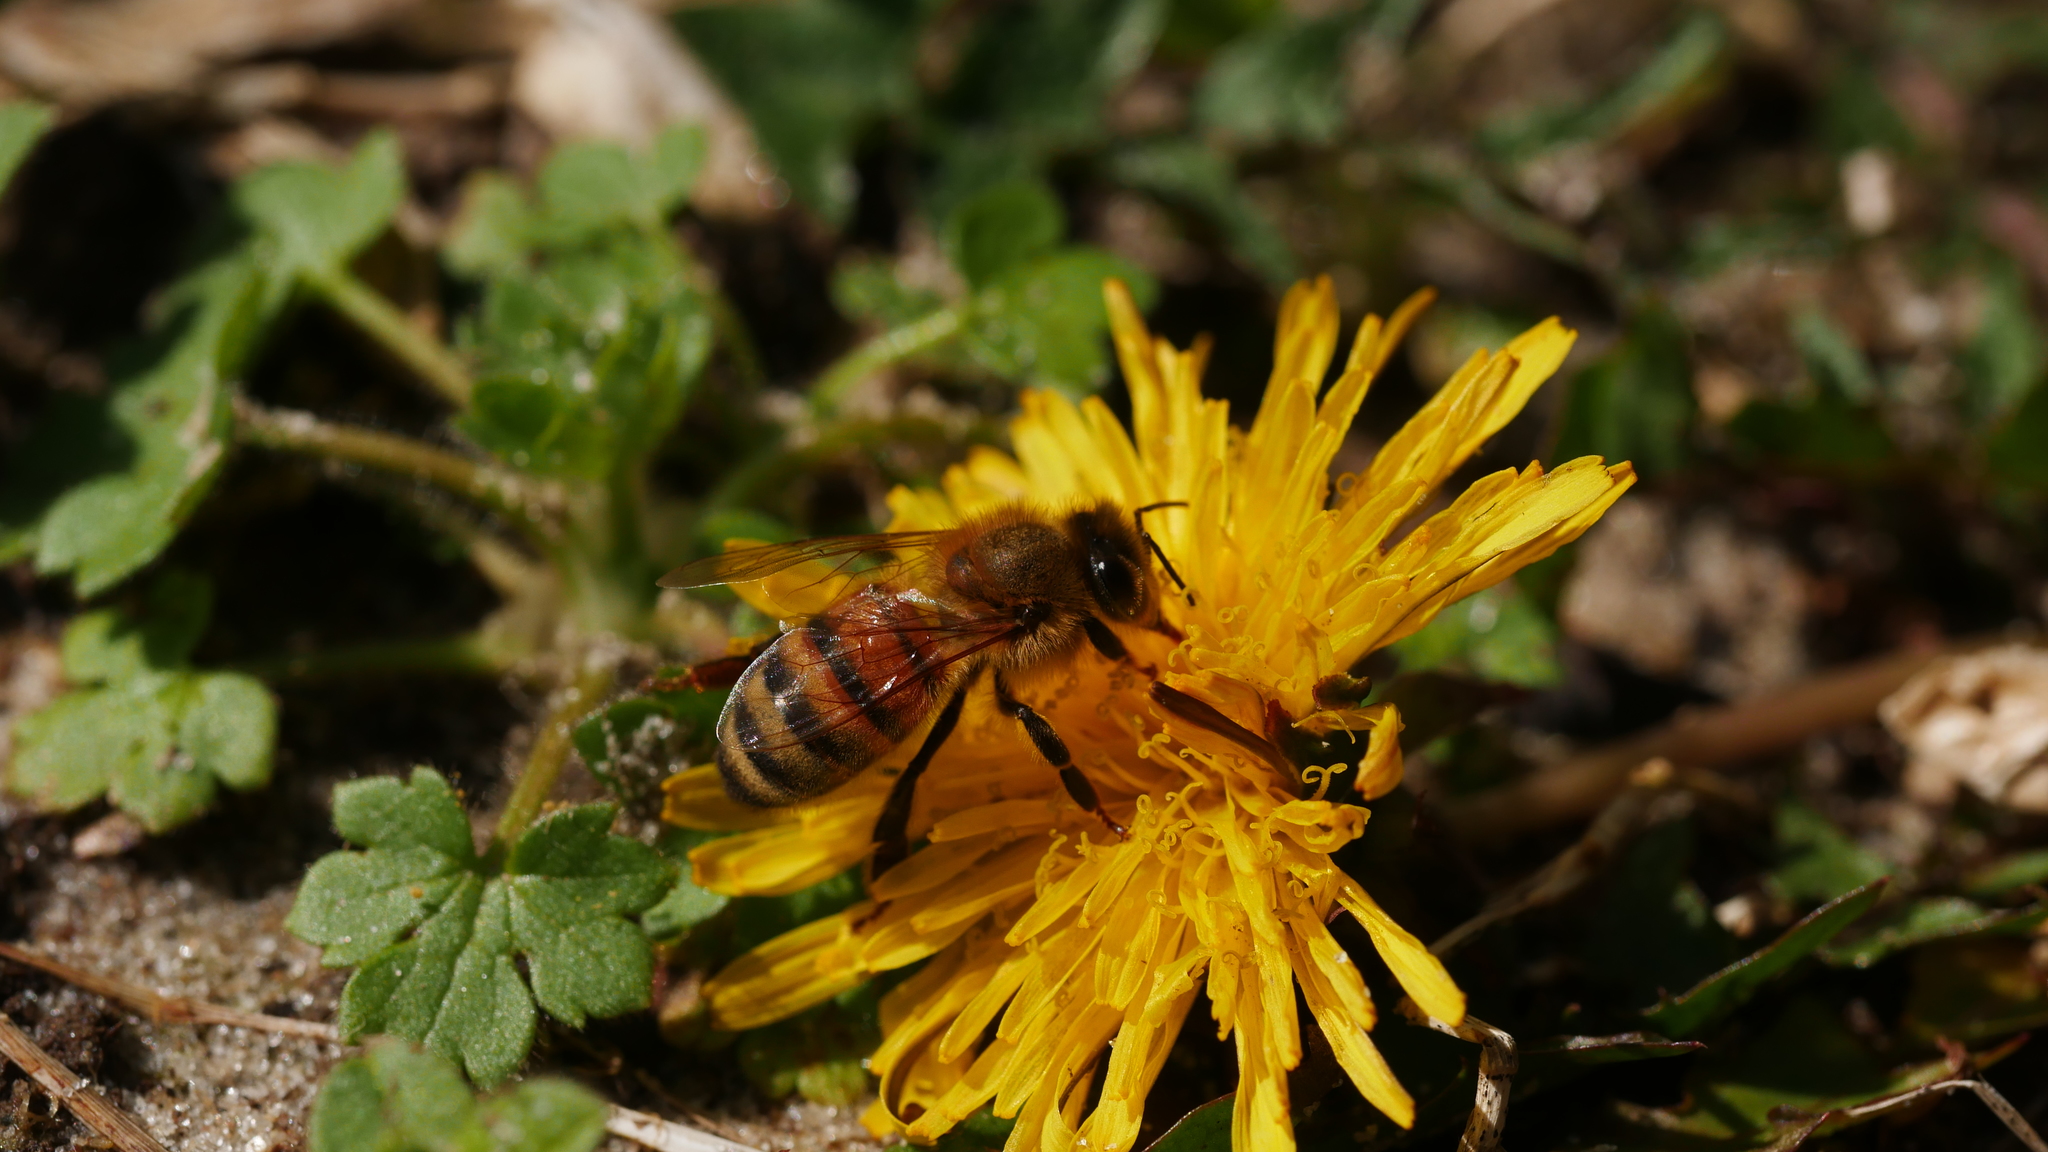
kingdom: Animalia
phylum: Arthropoda
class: Insecta
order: Hymenoptera
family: Apidae
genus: Apis
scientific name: Apis mellifera
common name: Honey bee
